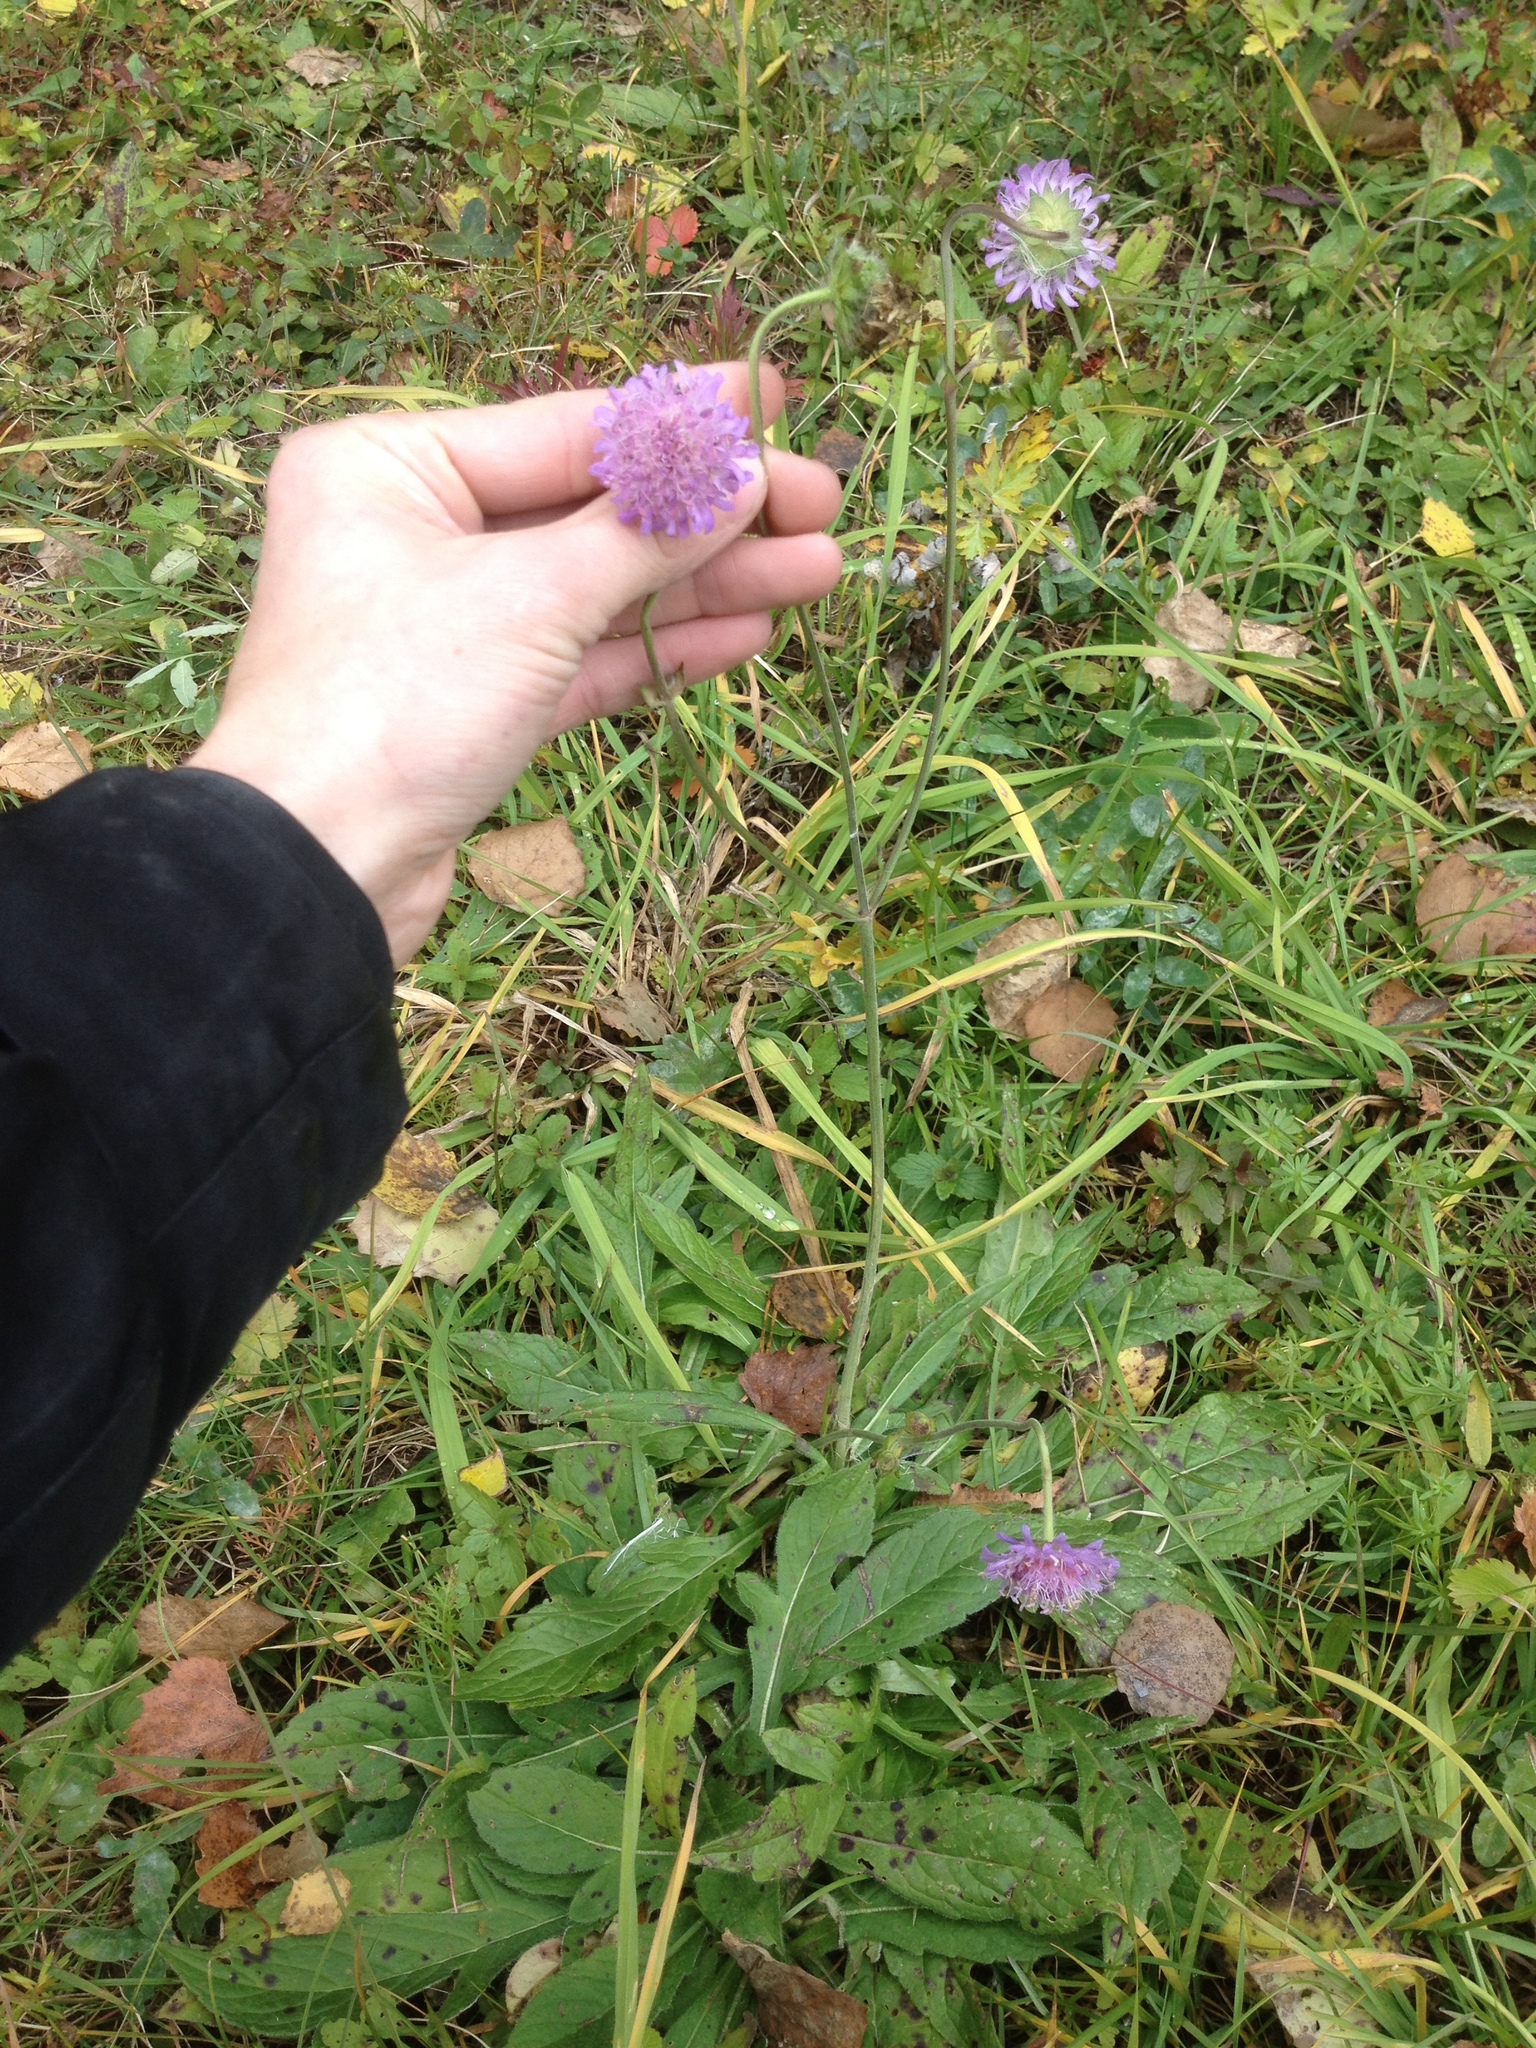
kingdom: Plantae
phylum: Tracheophyta
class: Magnoliopsida
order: Dipsacales
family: Caprifoliaceae
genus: Knautia
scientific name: Knautia arvensis
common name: Field scabiosa
